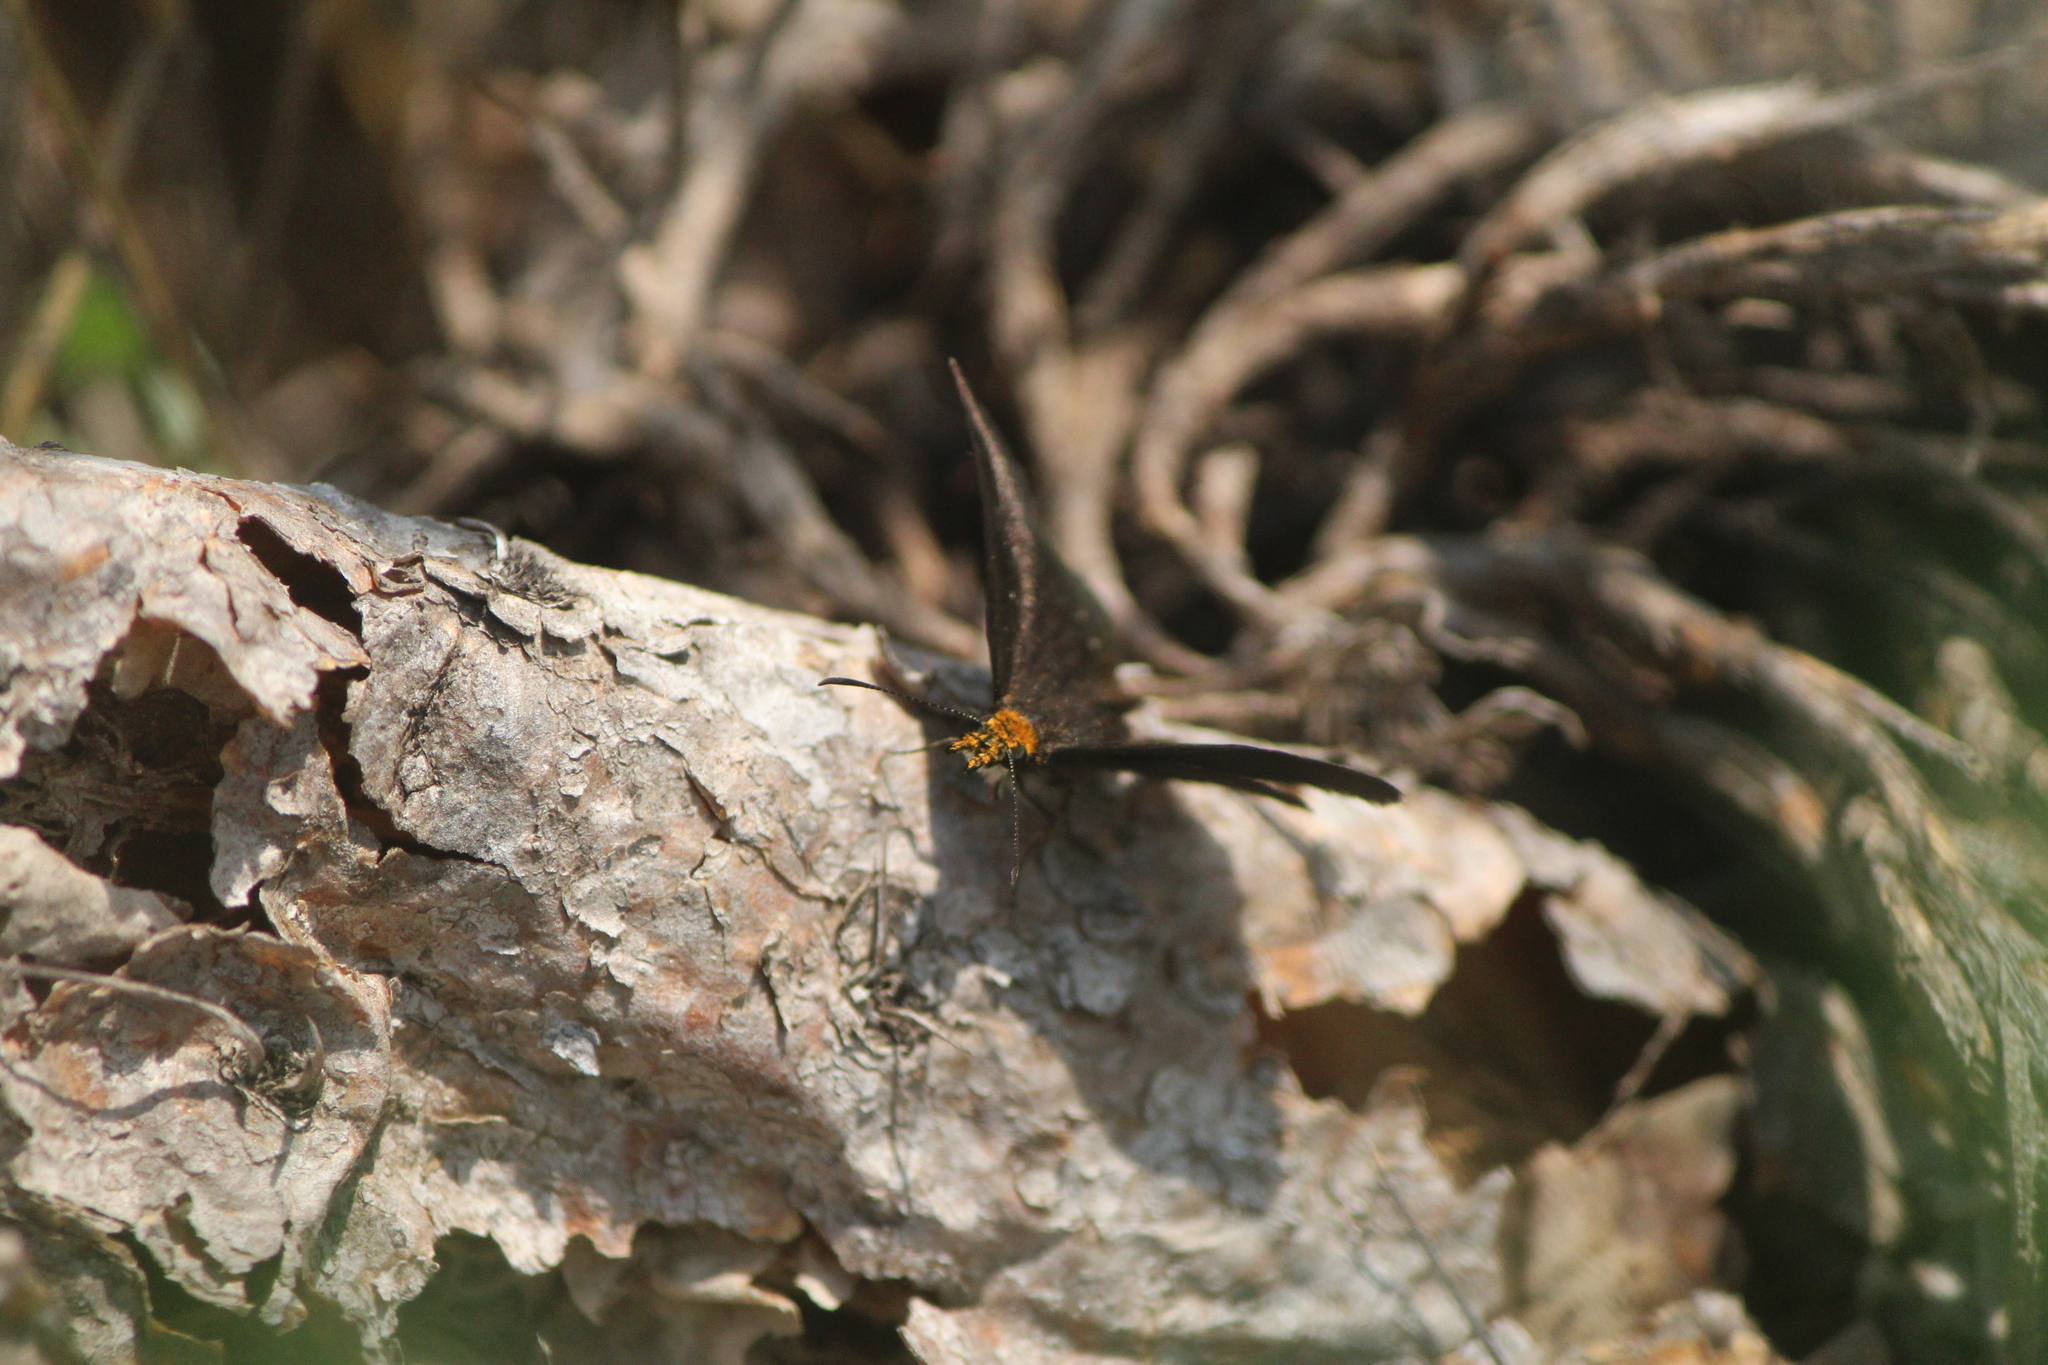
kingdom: Animalia
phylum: Arthropoda
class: Insecta
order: Lepidoptera
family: Hesperiidae
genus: Staphylus
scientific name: Staphylus ceos
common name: Golden-headed scallopwing
